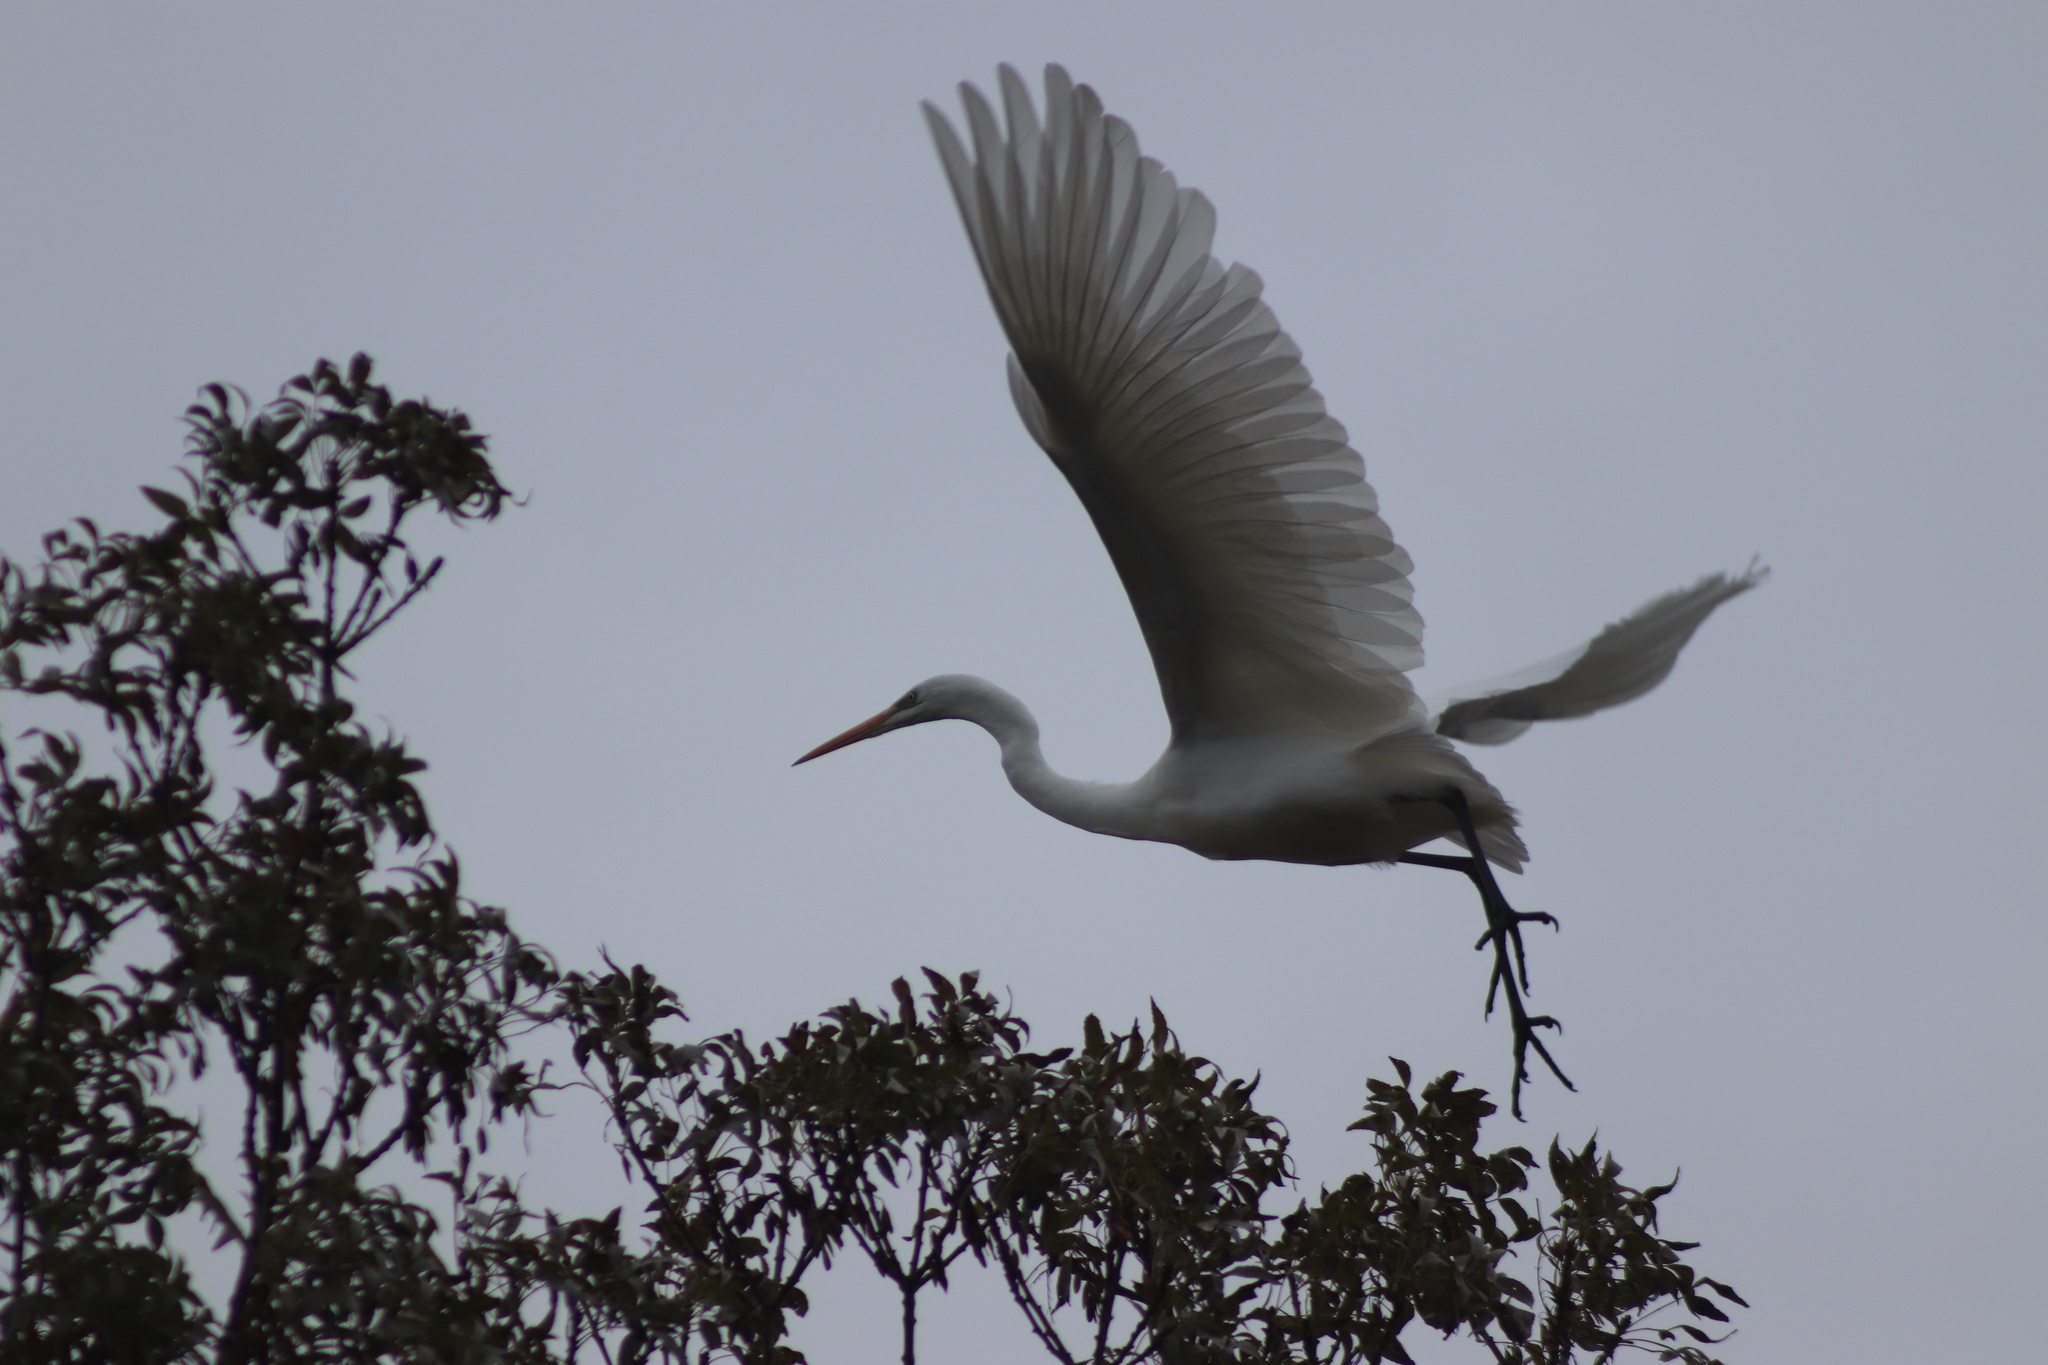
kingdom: Animalia
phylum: Chordata
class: Aves
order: Pelecaniformes
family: Ardeidae
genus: Ardea
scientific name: Ardea alba
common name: Great egret
